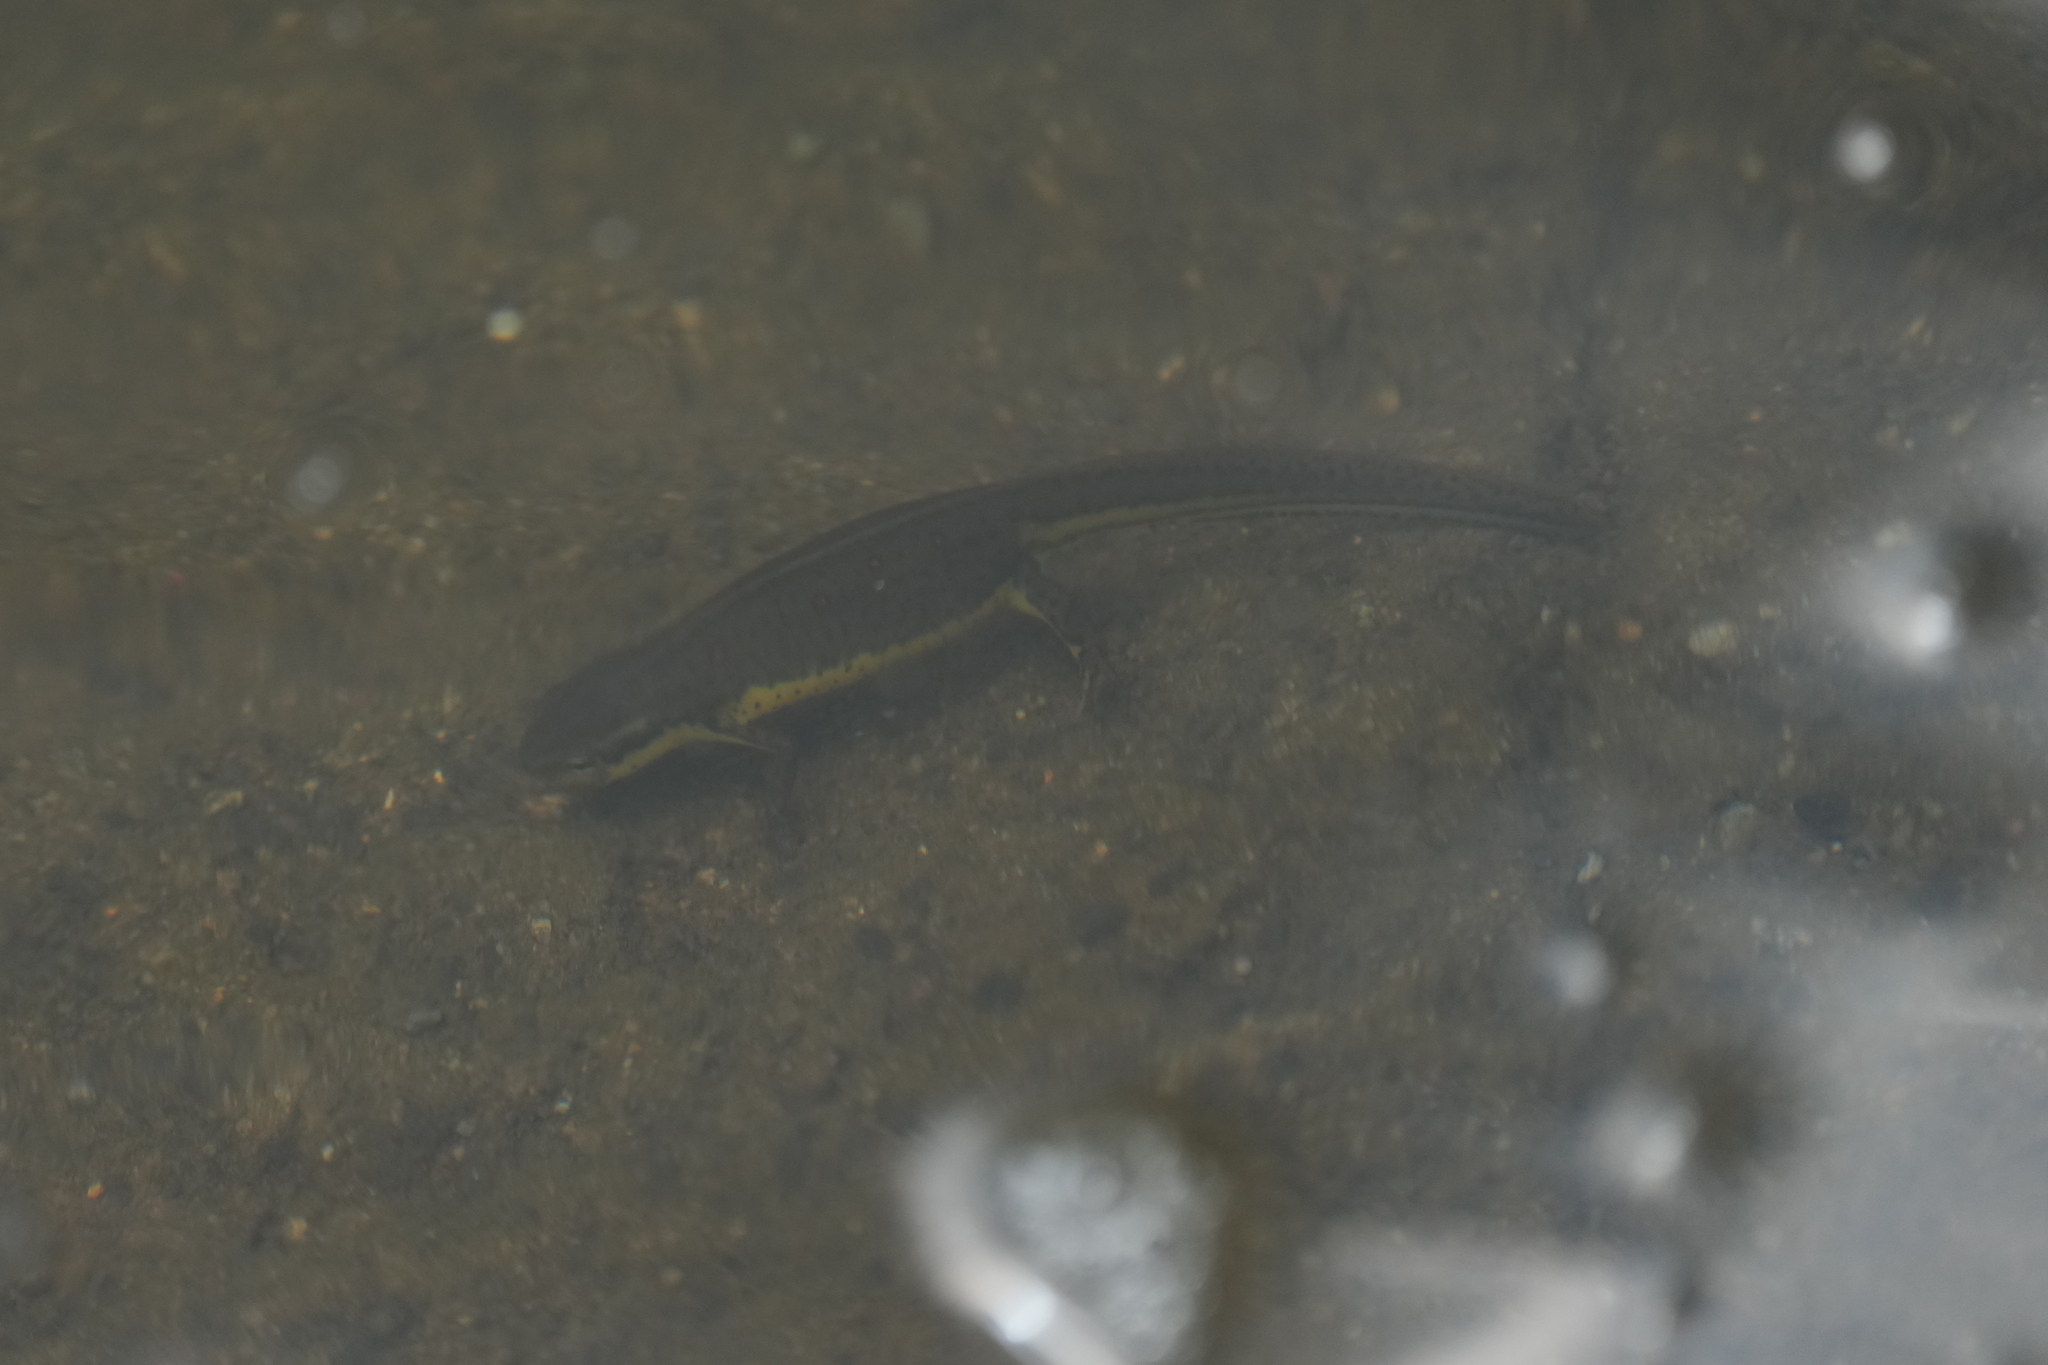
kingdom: Animalia
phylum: Chordata
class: Amphibia
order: Caudata
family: Salamandridae
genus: Notophthalmus
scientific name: Notophthalmus viridescens
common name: Eastern newt
